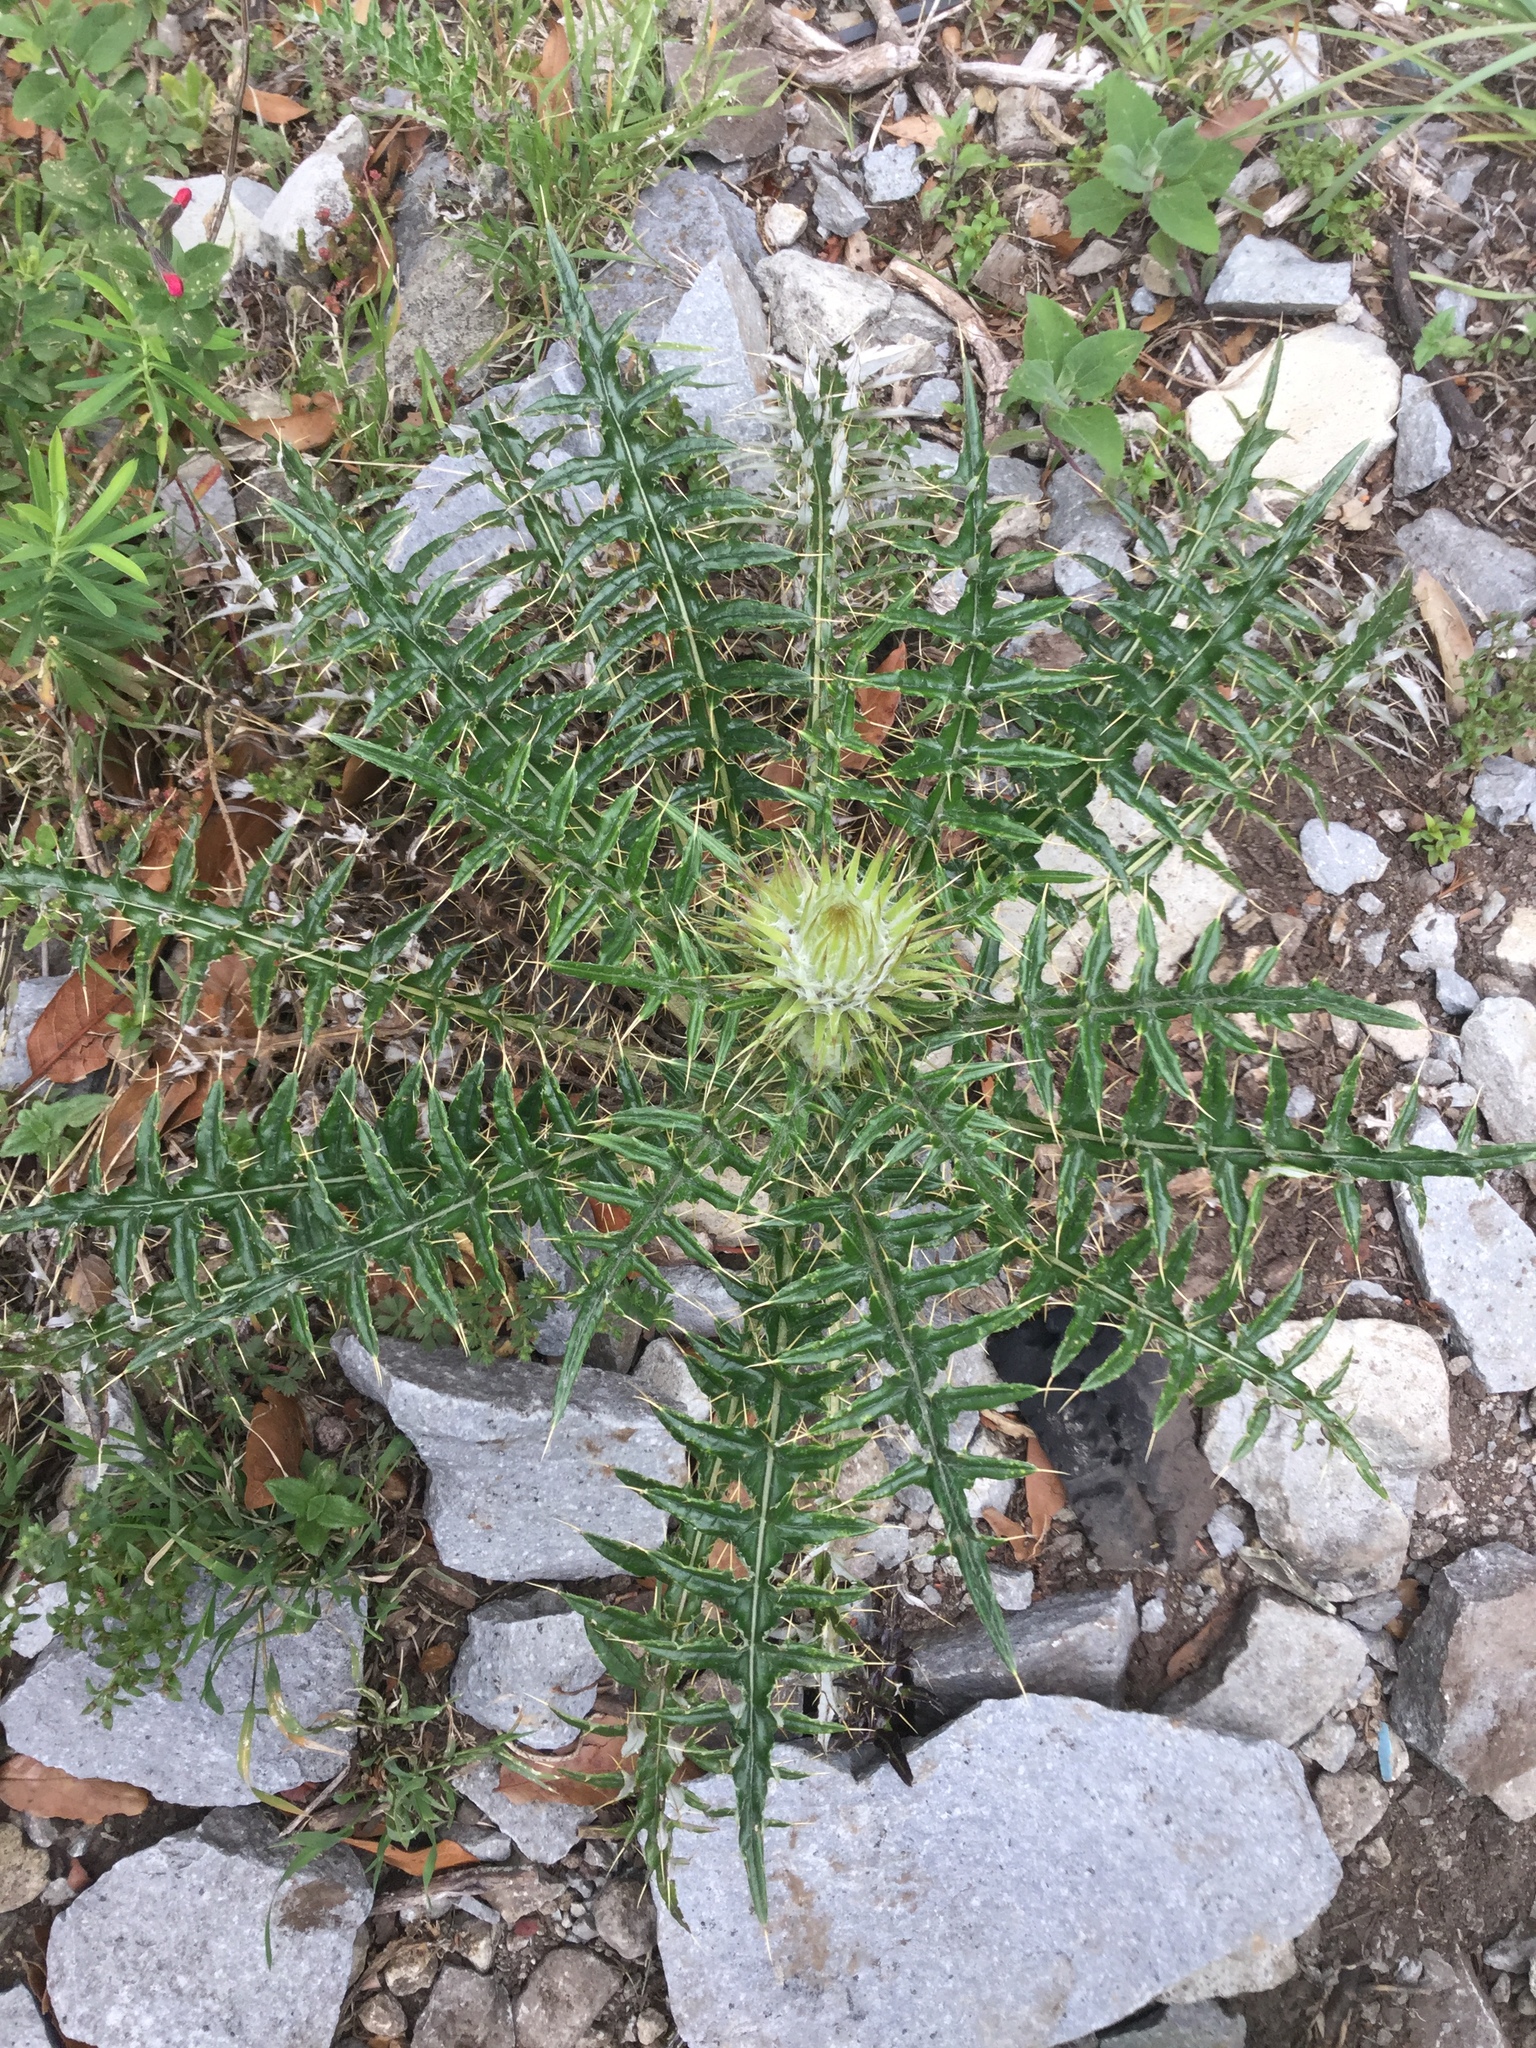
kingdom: Plantae
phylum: Tracheophyta
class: Magnoliopsida
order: Asterales
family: Asteraceae
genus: Cirsium
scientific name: Cirsium zamoranense
